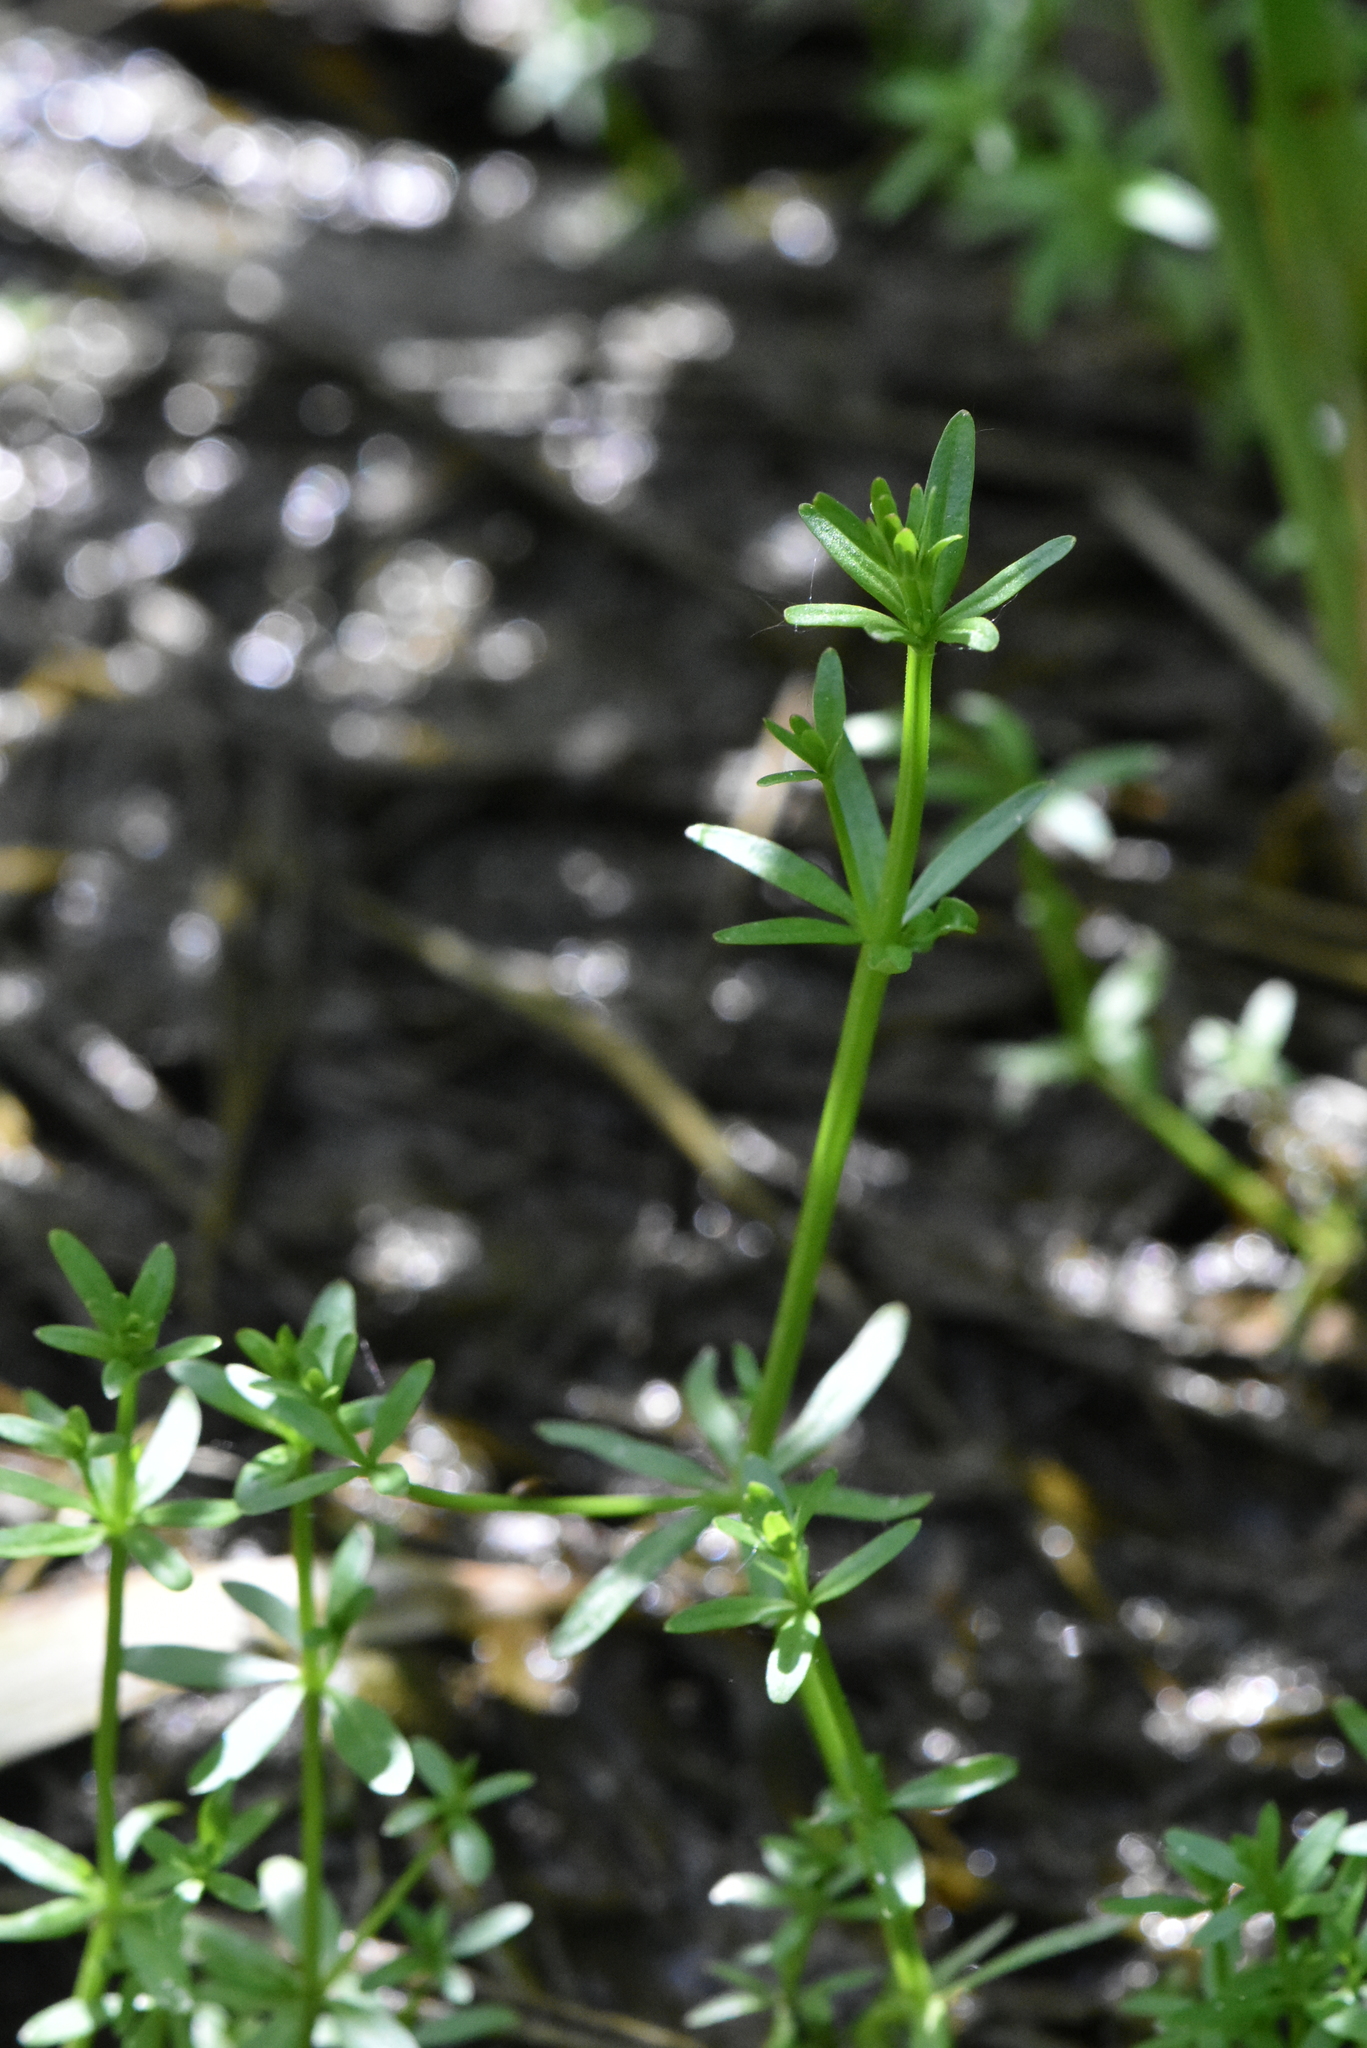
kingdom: Plantae
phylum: Tracheophyta
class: Magnoliopsida
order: Gentianales
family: Rubiaceae
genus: Galium
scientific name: Galium palustre
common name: Common marsh-bedstraw
